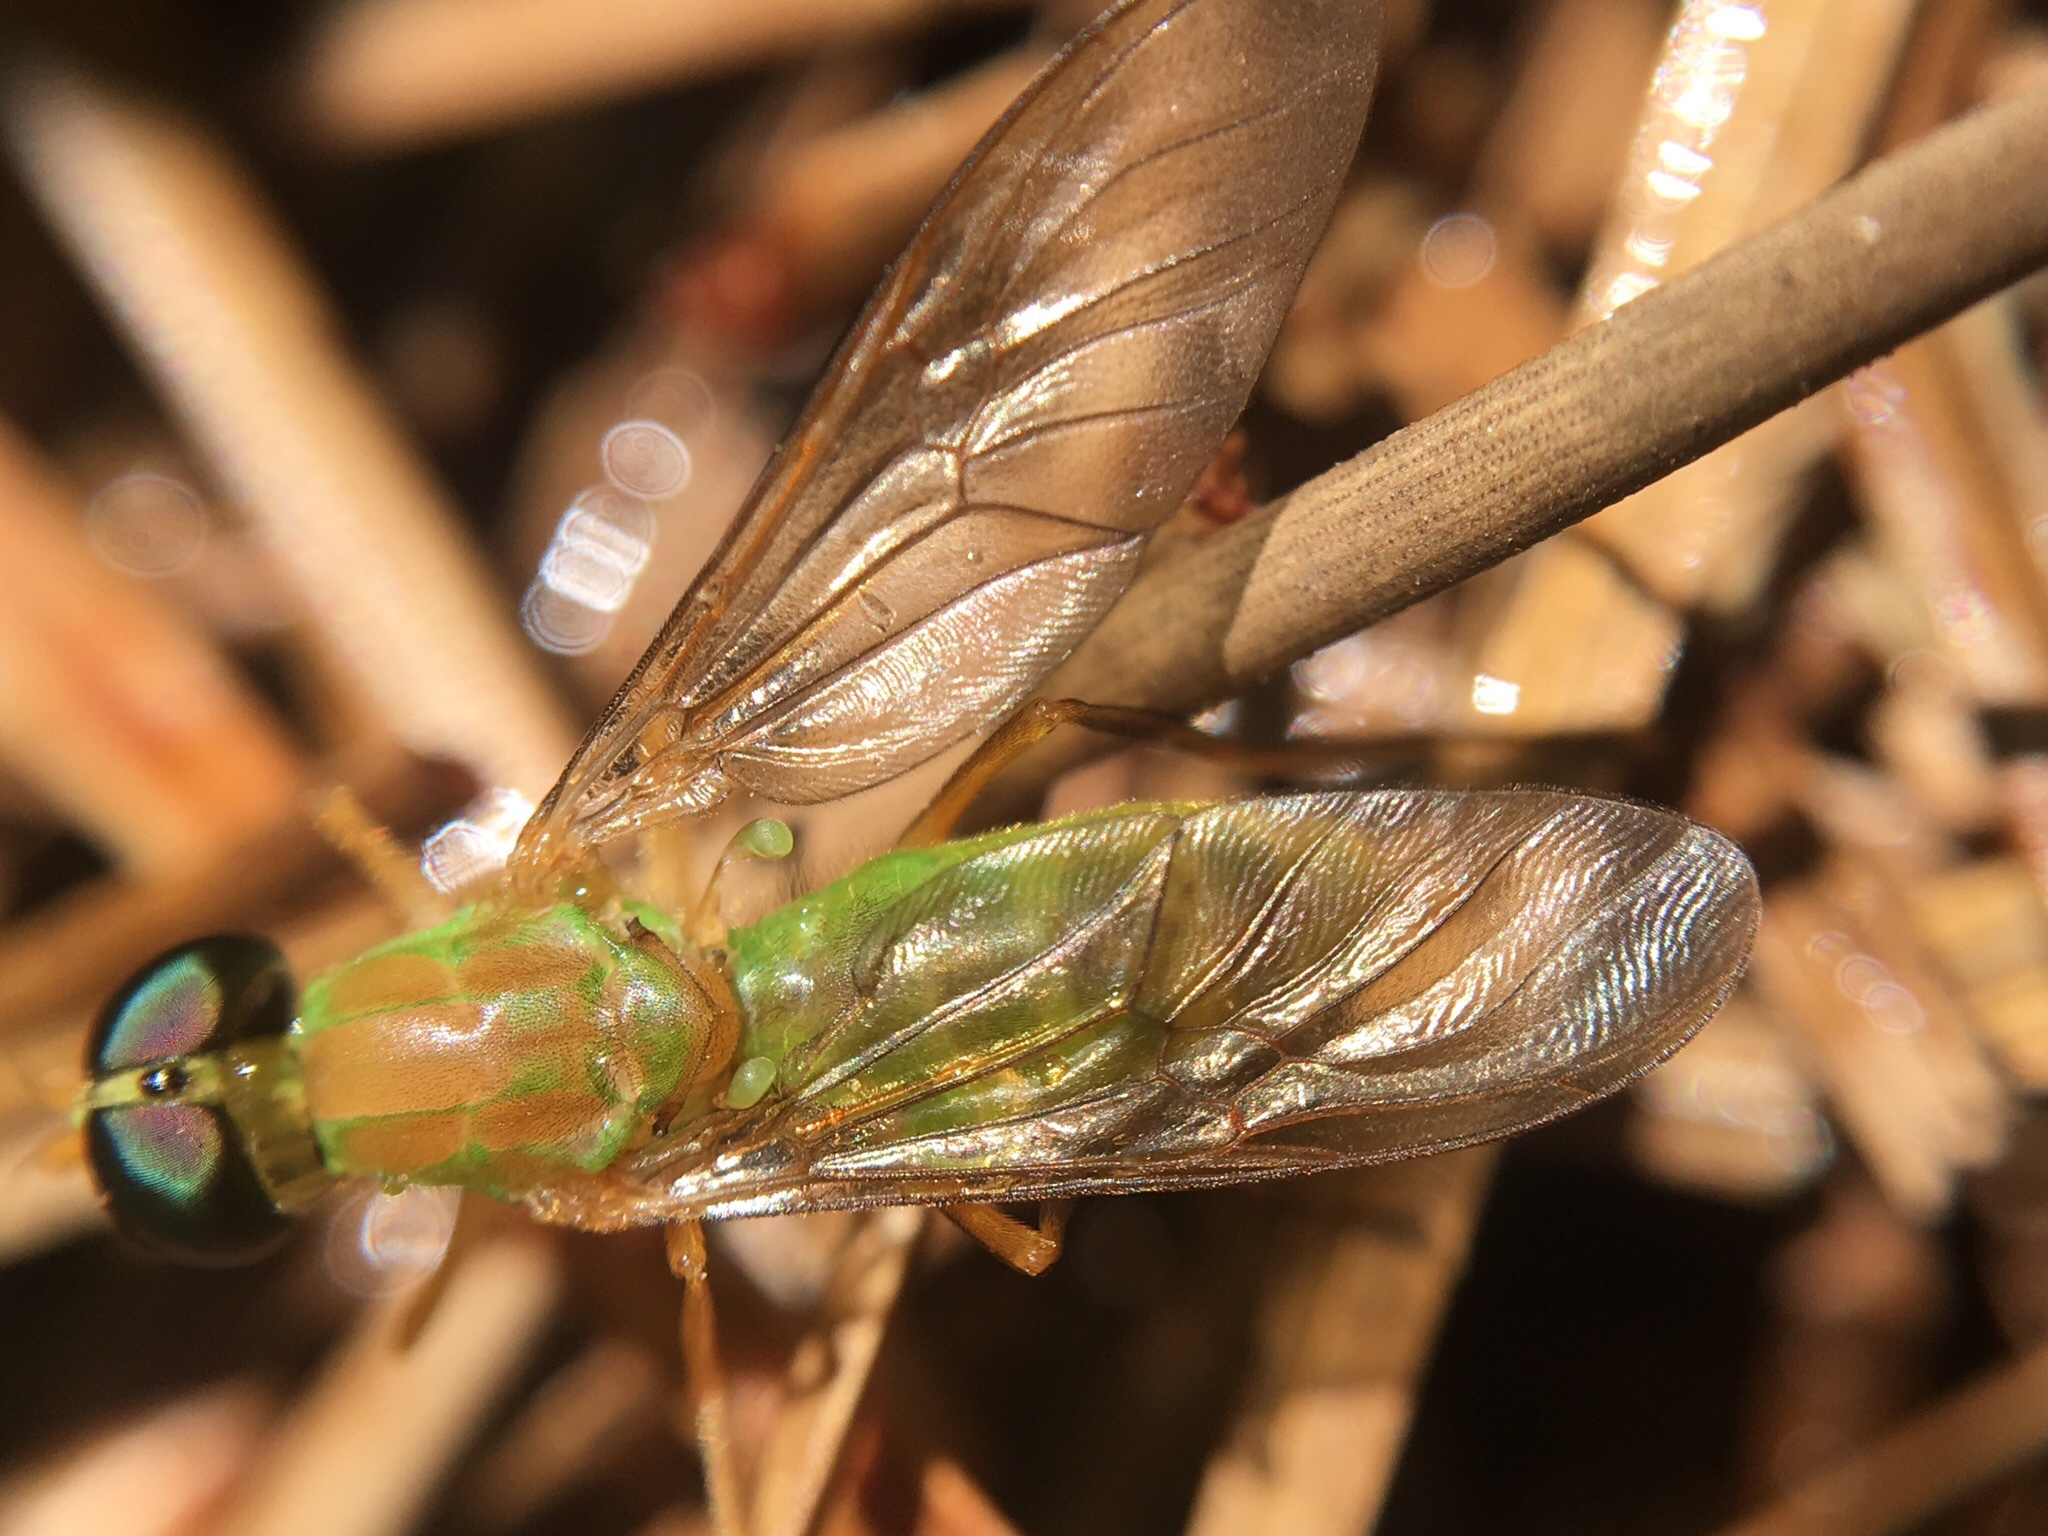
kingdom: Animalia
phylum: Arthropoda
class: Insecta
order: Diptera
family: Stratiomyidae
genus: Ptecticus
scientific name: Ptecticus trivittatus
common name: Compost fly
